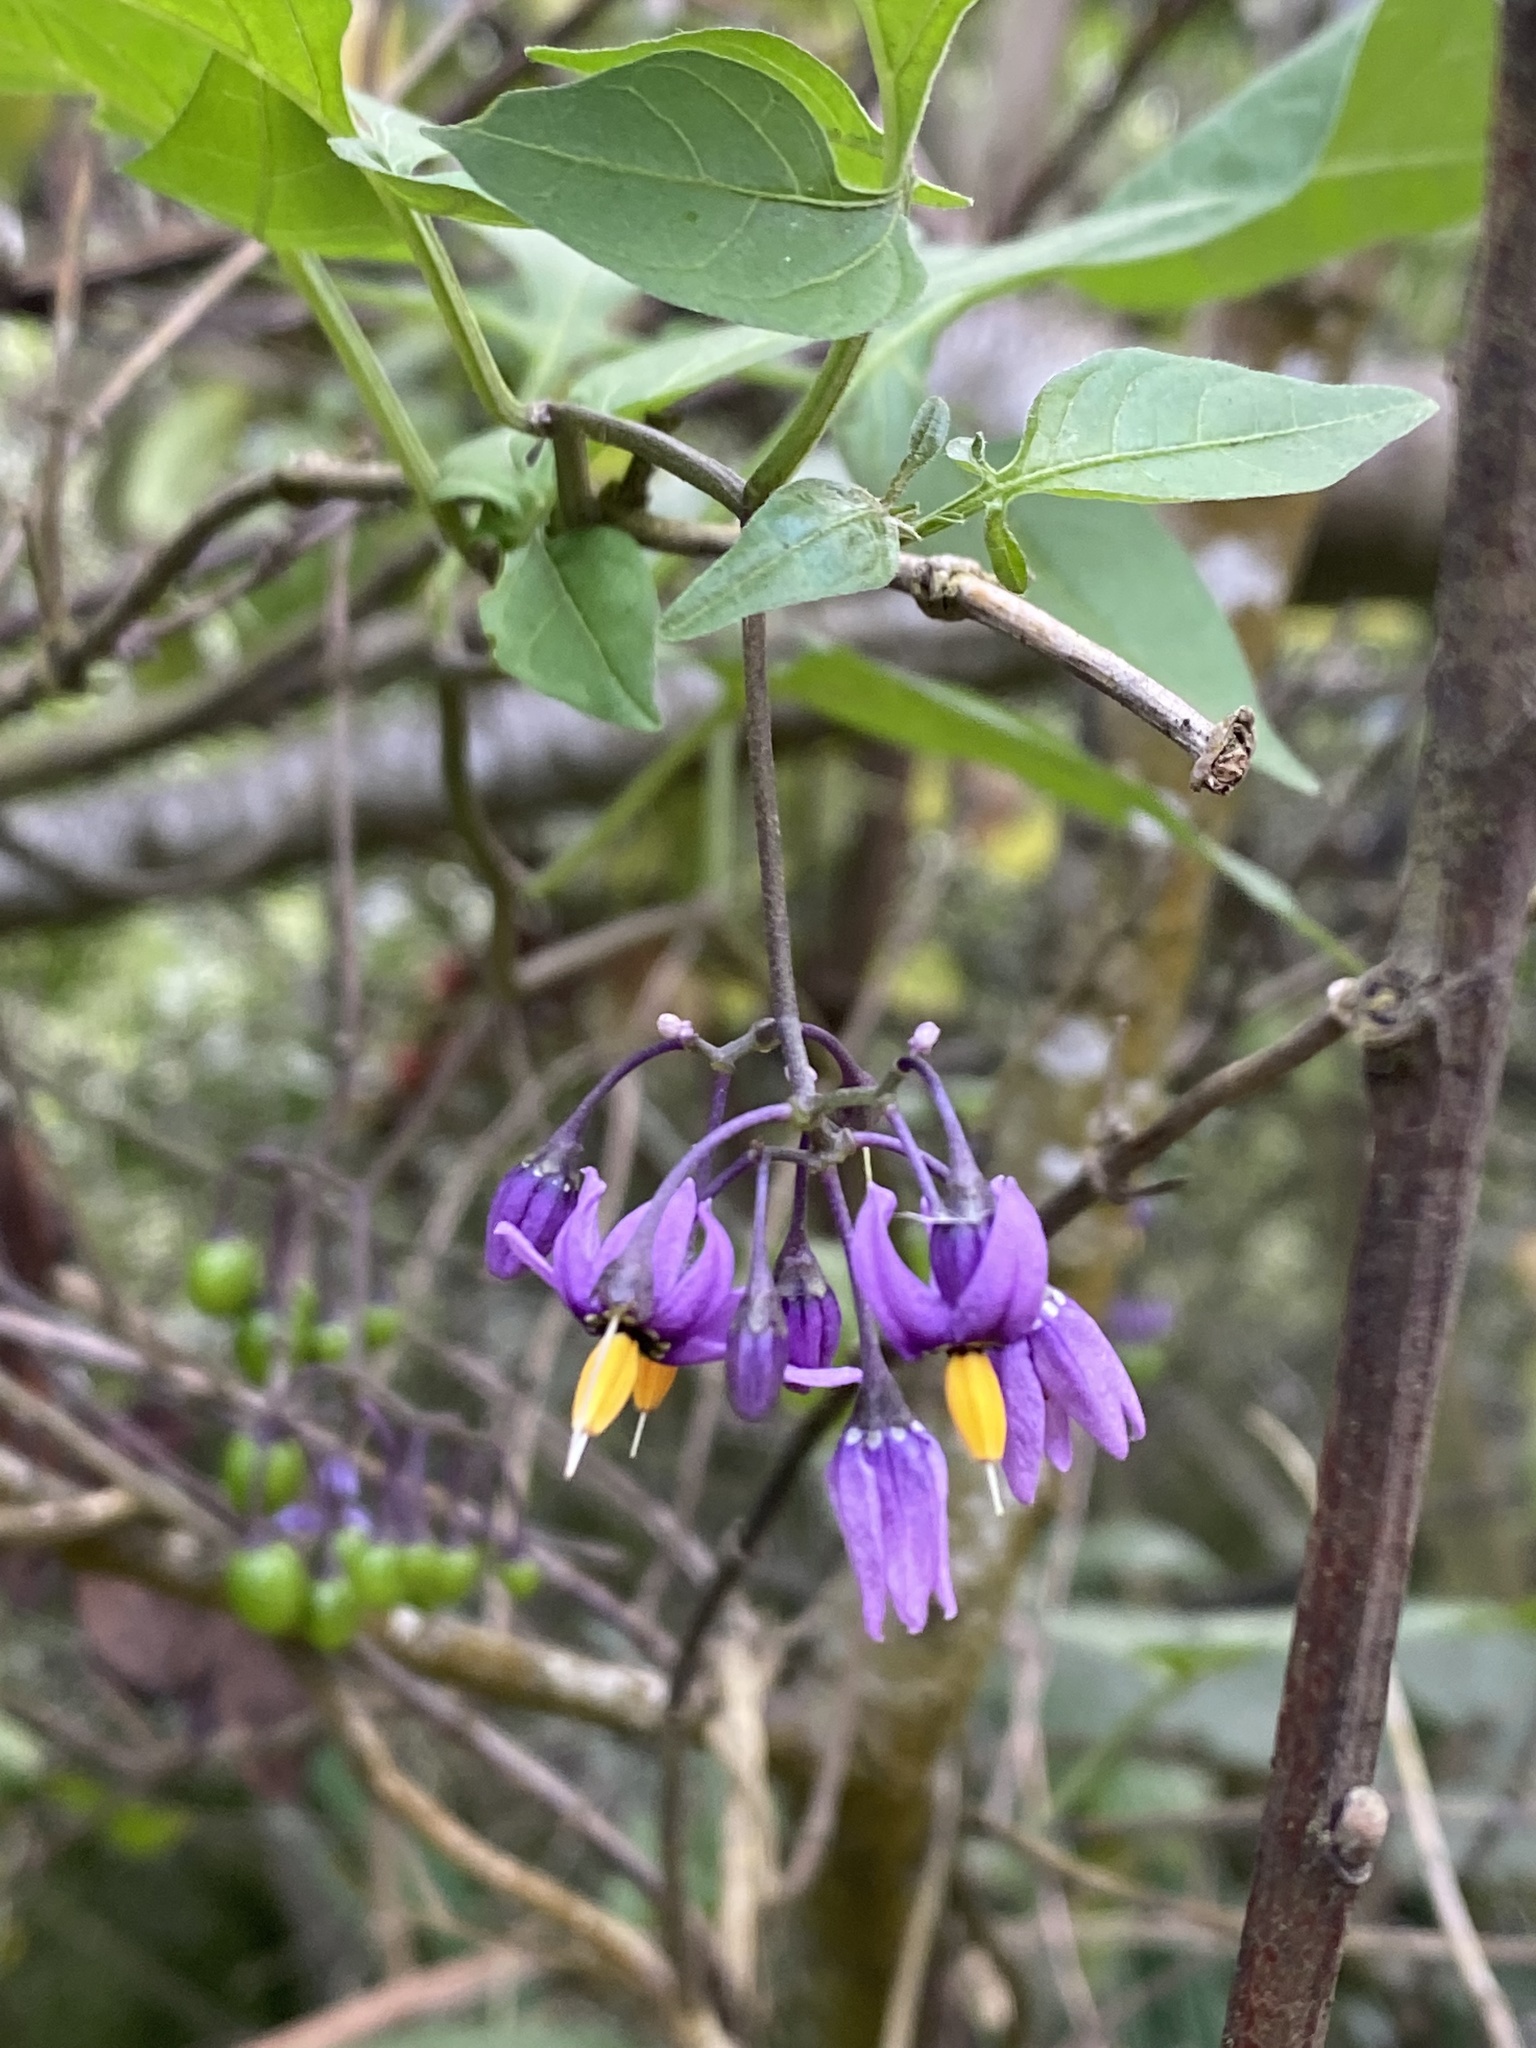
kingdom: Plantae
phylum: Tracheophyta
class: Magnoliopsida
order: Solanales
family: Solanaceae
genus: Solanum
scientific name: Solanum dulcamara
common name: Climbing nightshade
